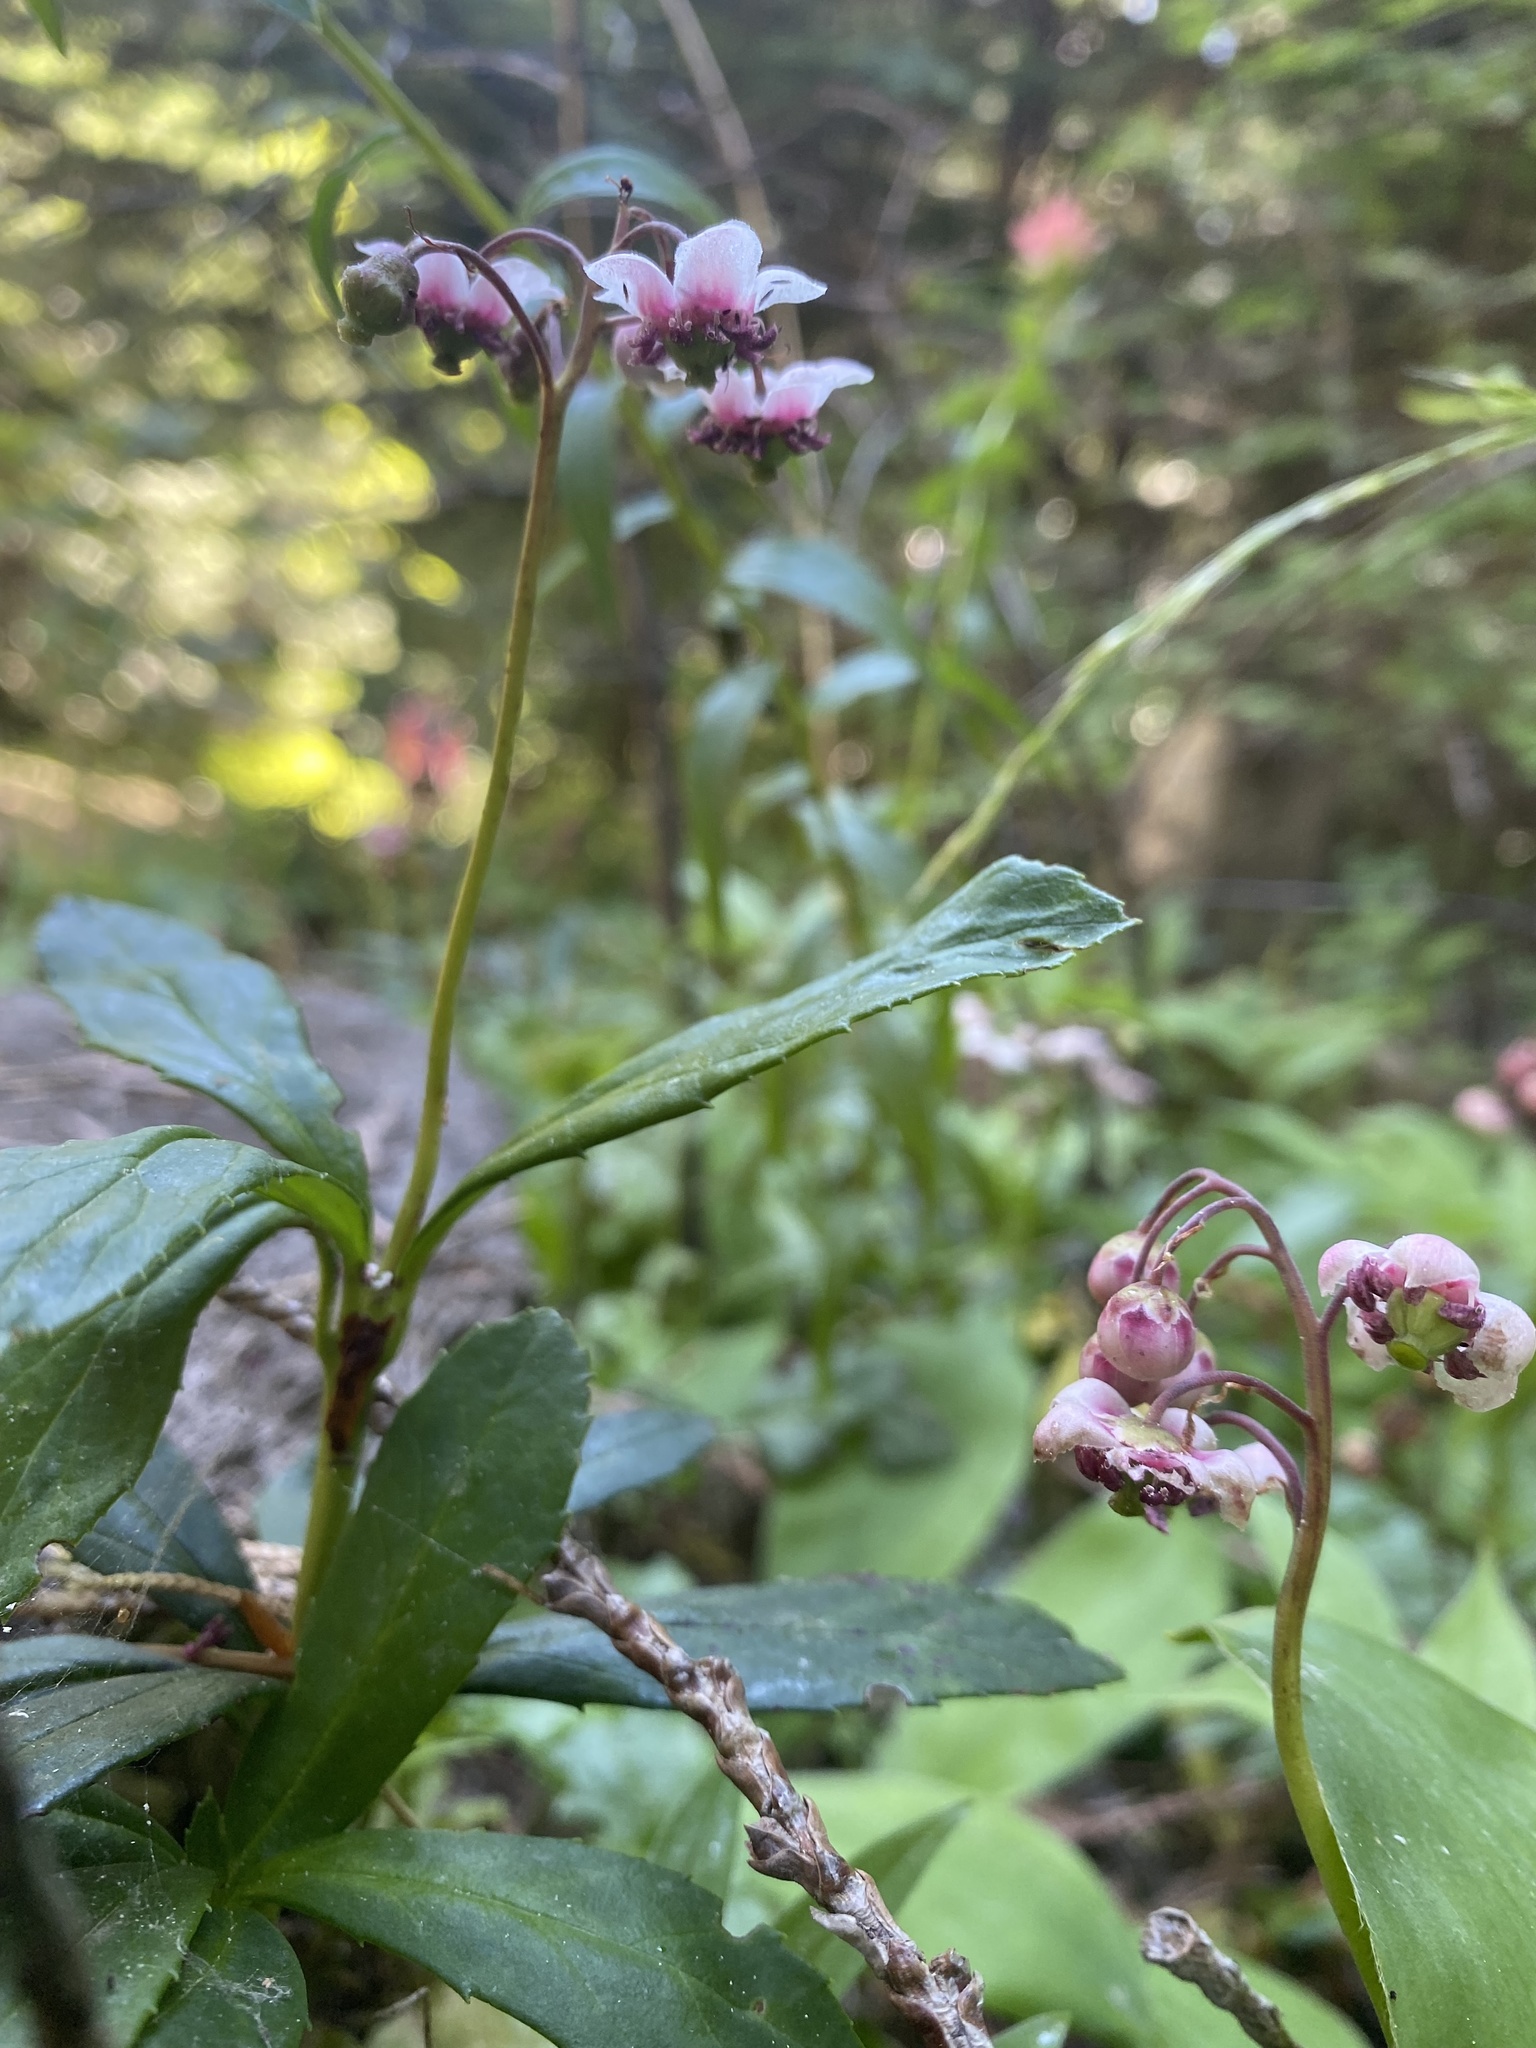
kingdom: Plantae
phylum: Tracheophyta
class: Magnoliopsida
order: Ericales
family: Ericaceae
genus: Chimaphila
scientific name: Chimaphila umbellata
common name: Pipsissewa
